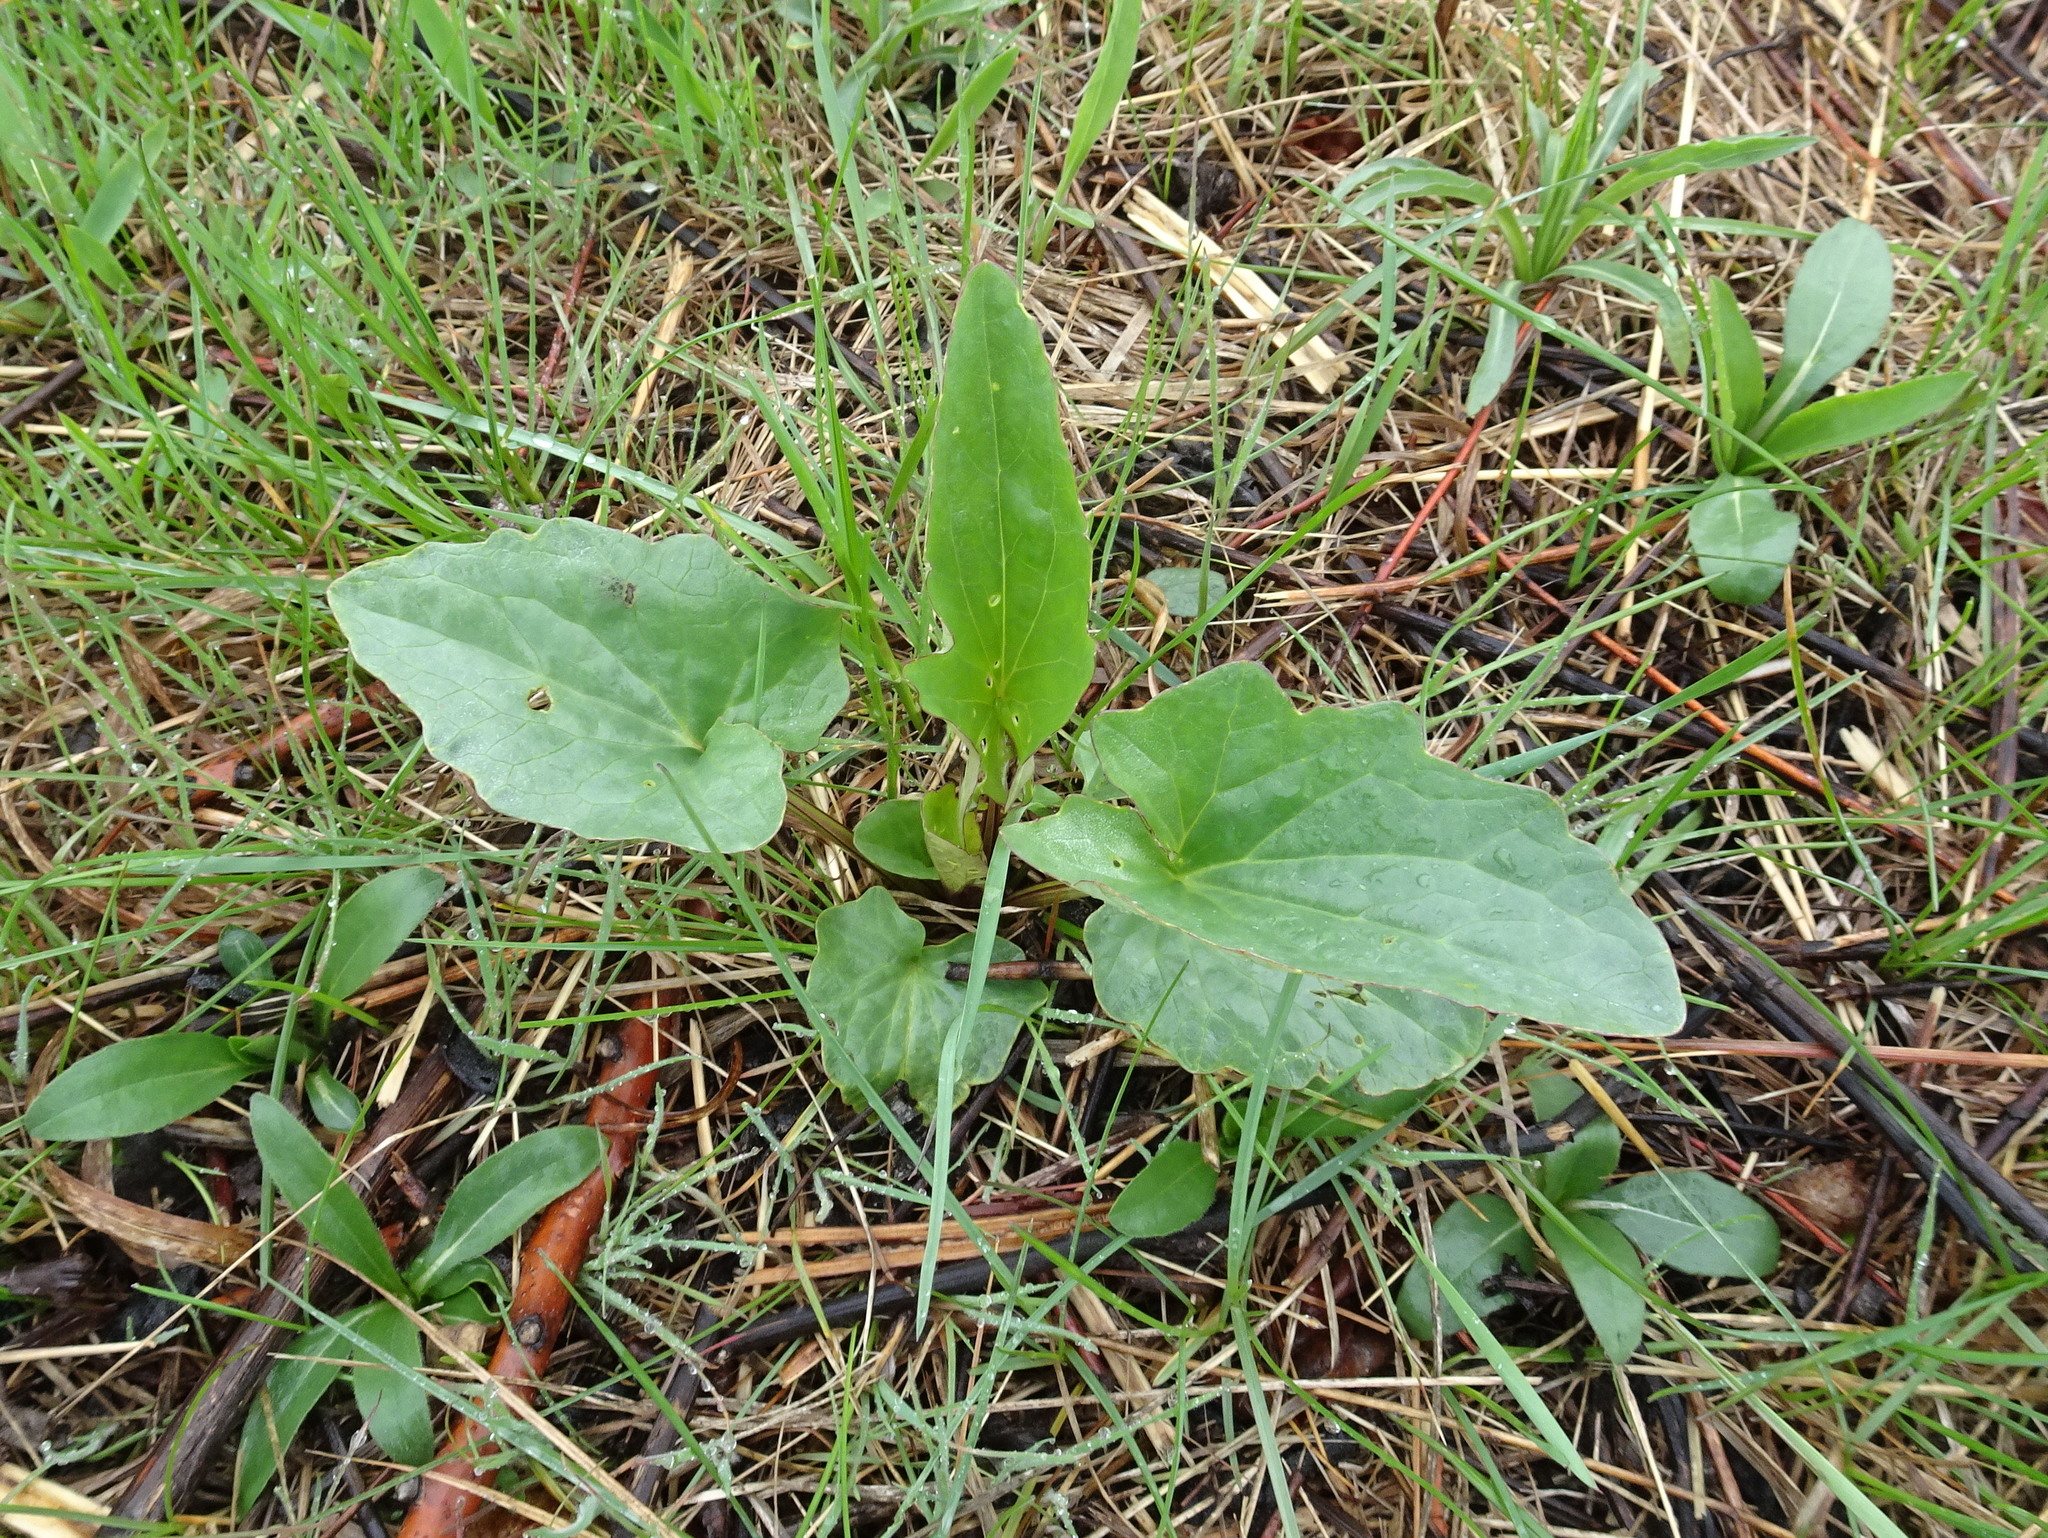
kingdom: Plantae
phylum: Tracheophyta
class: Magnoliopsida
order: Asterales
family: Asteraceae
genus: Arnoglossum
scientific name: Arnoglossum atriplicifolium
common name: Pale indian-plantain
